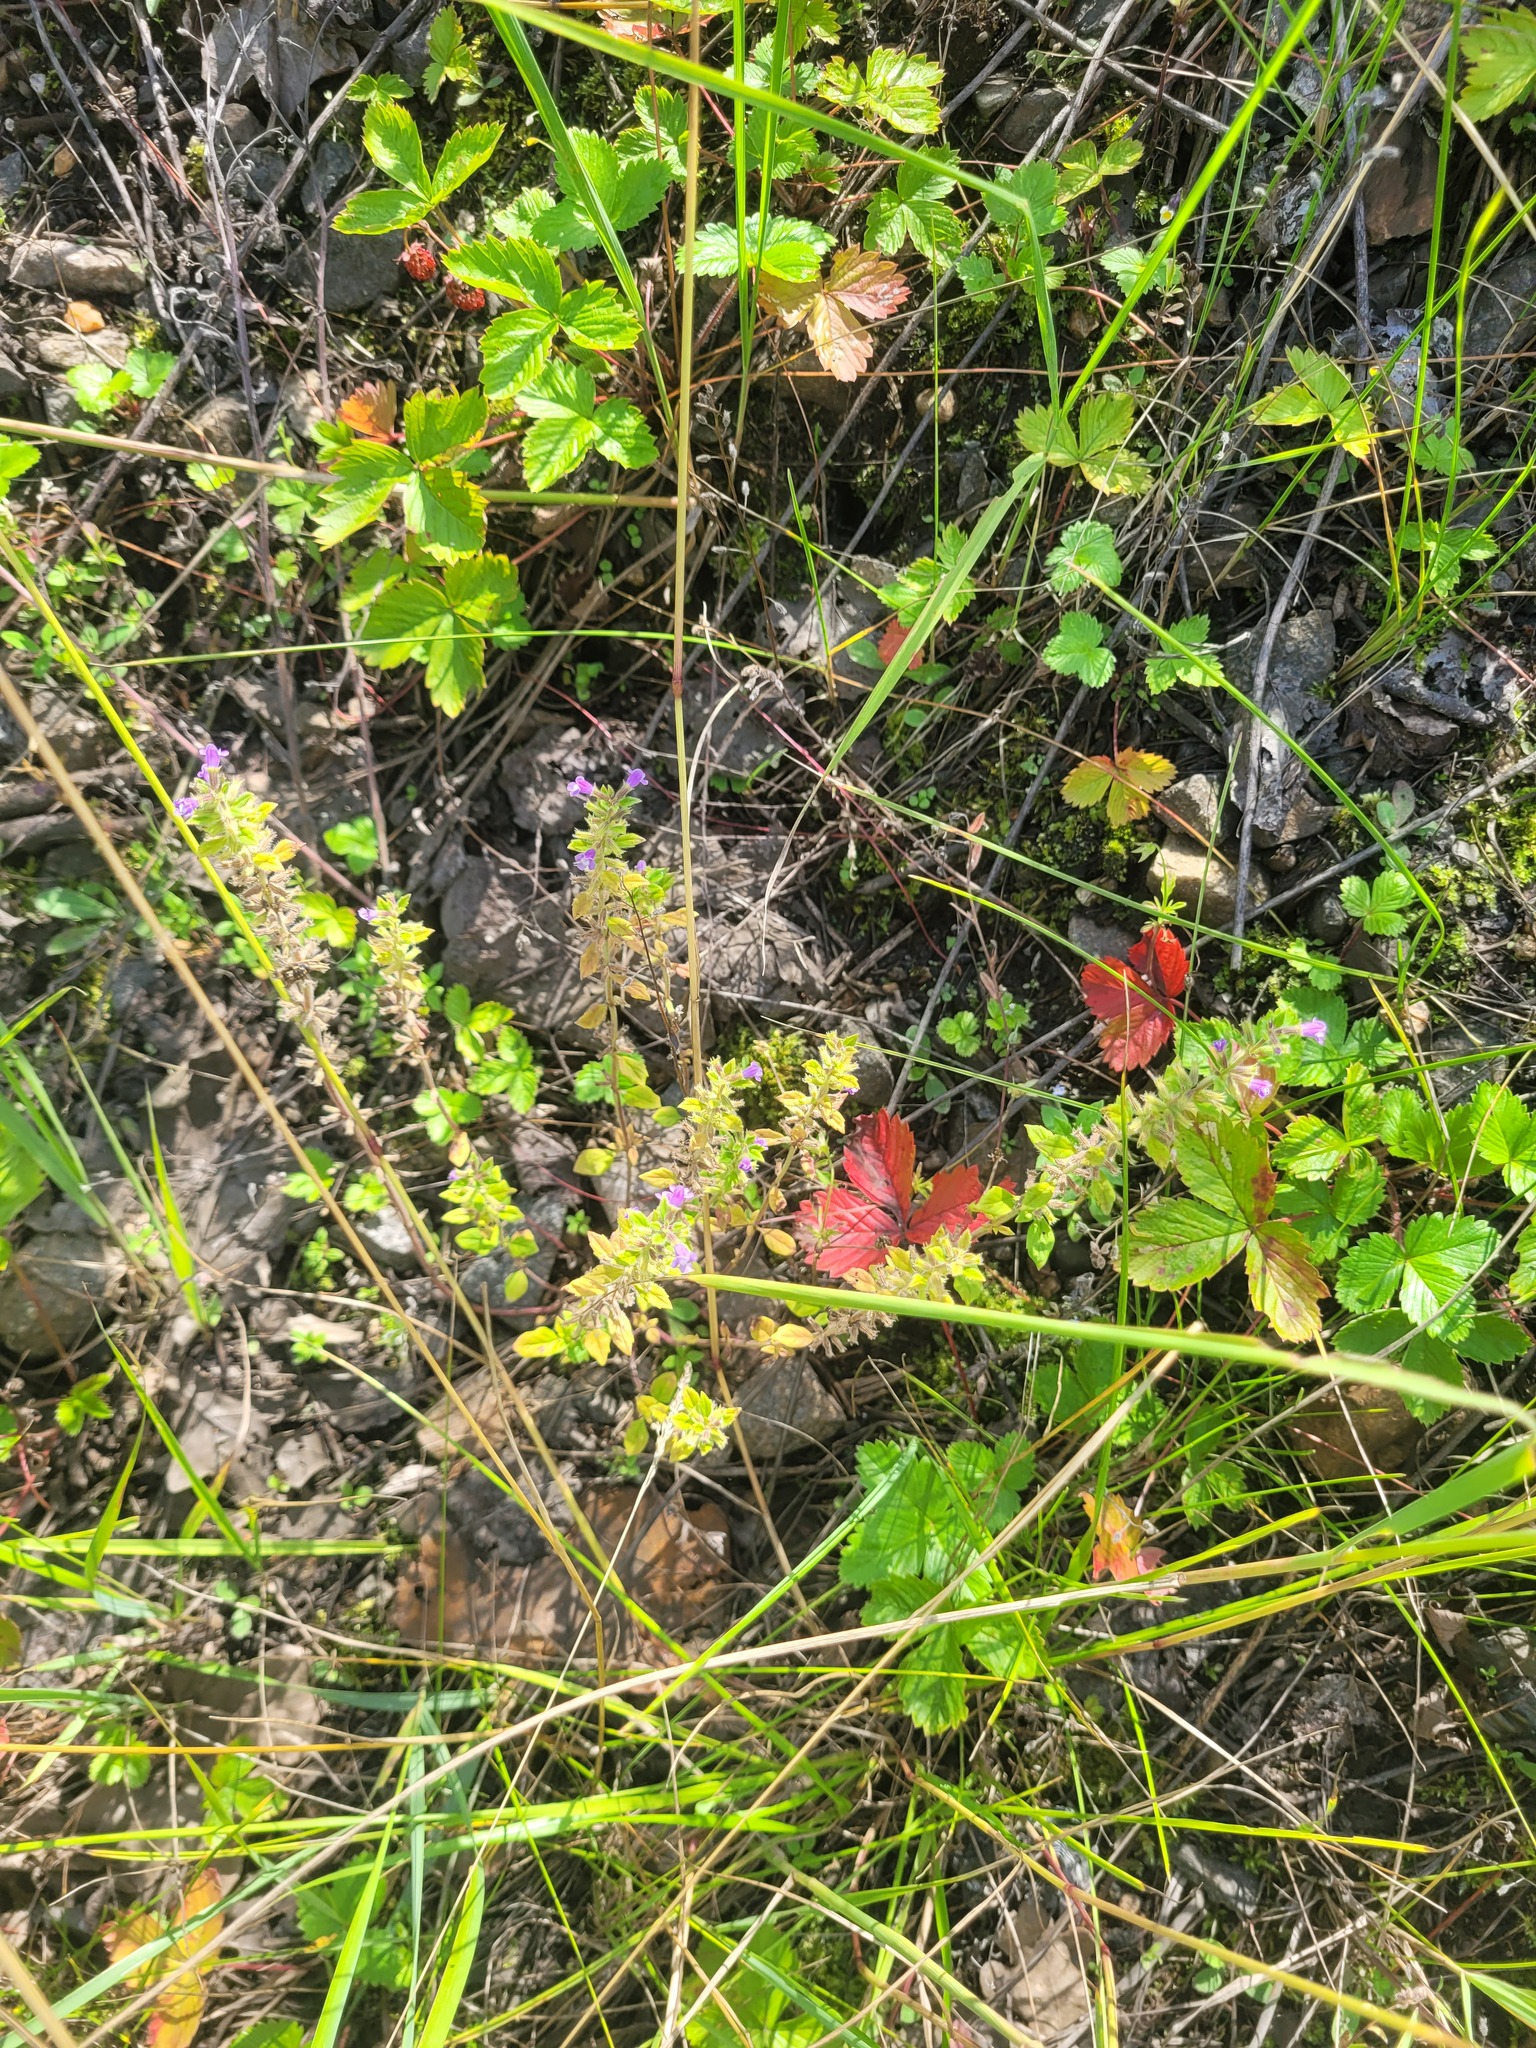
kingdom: Plantae
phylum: Tracheophyta
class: Magnoliopsida
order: Lamiales
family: Lamiaceae
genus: Clinopodium
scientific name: Clinopodium acinos
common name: Basil thyme
